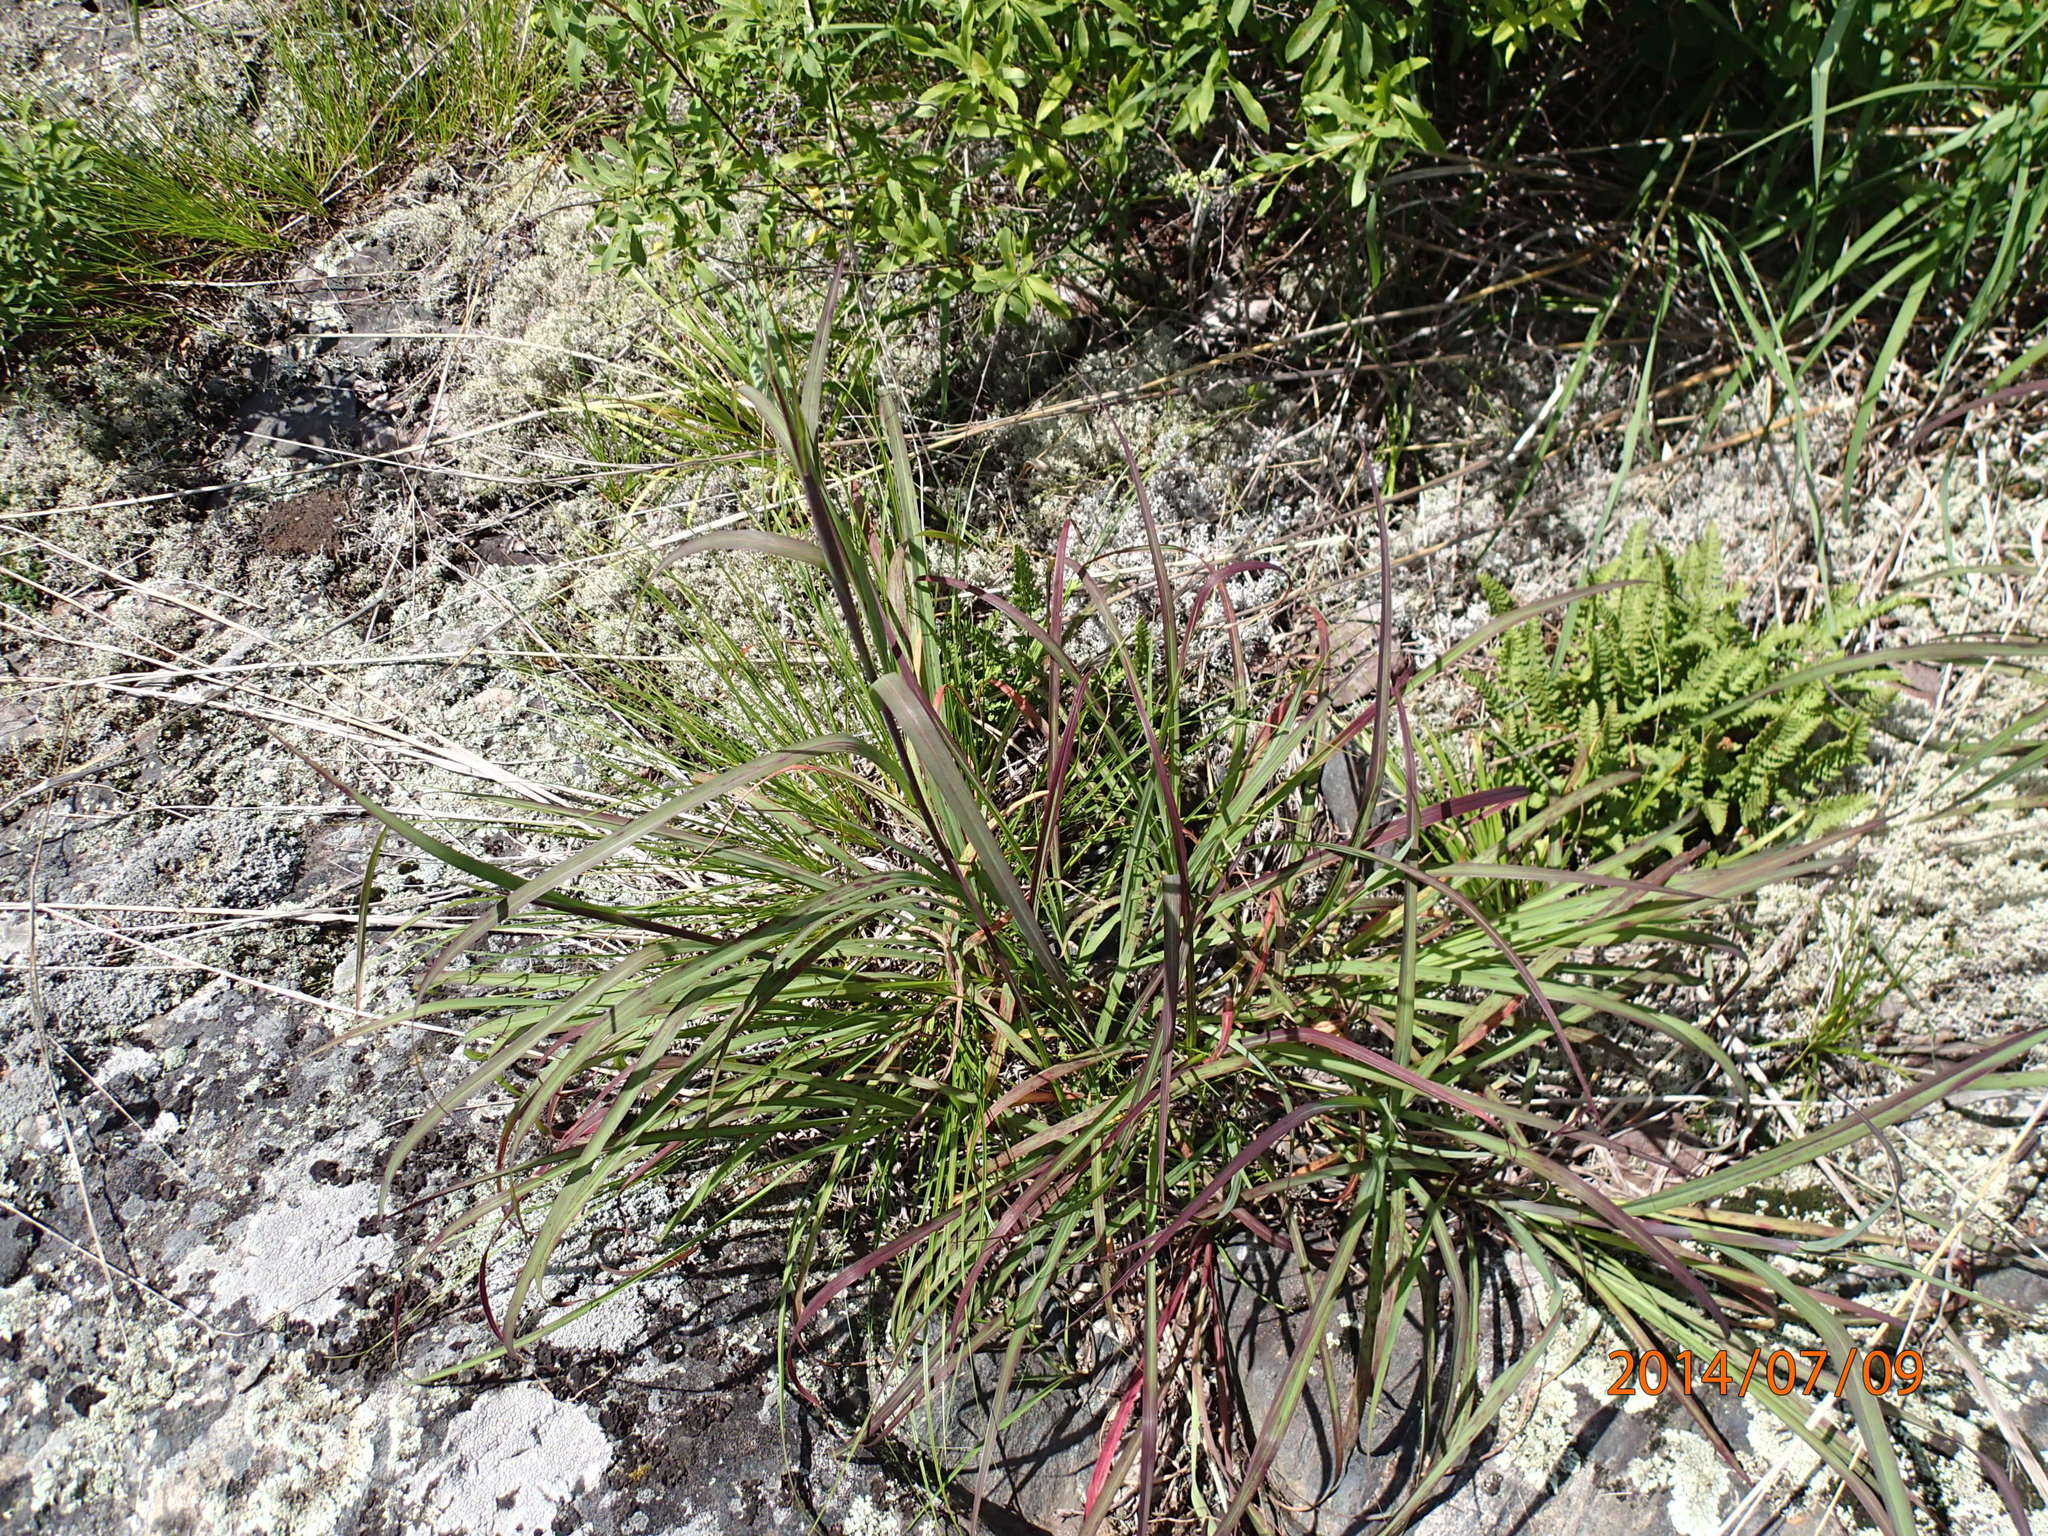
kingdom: Plantae
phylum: Tracheophyta
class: Liliopsida
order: Poales
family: Poaceae
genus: Andropogon
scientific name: Andropogon gerardi
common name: Big bluestem
